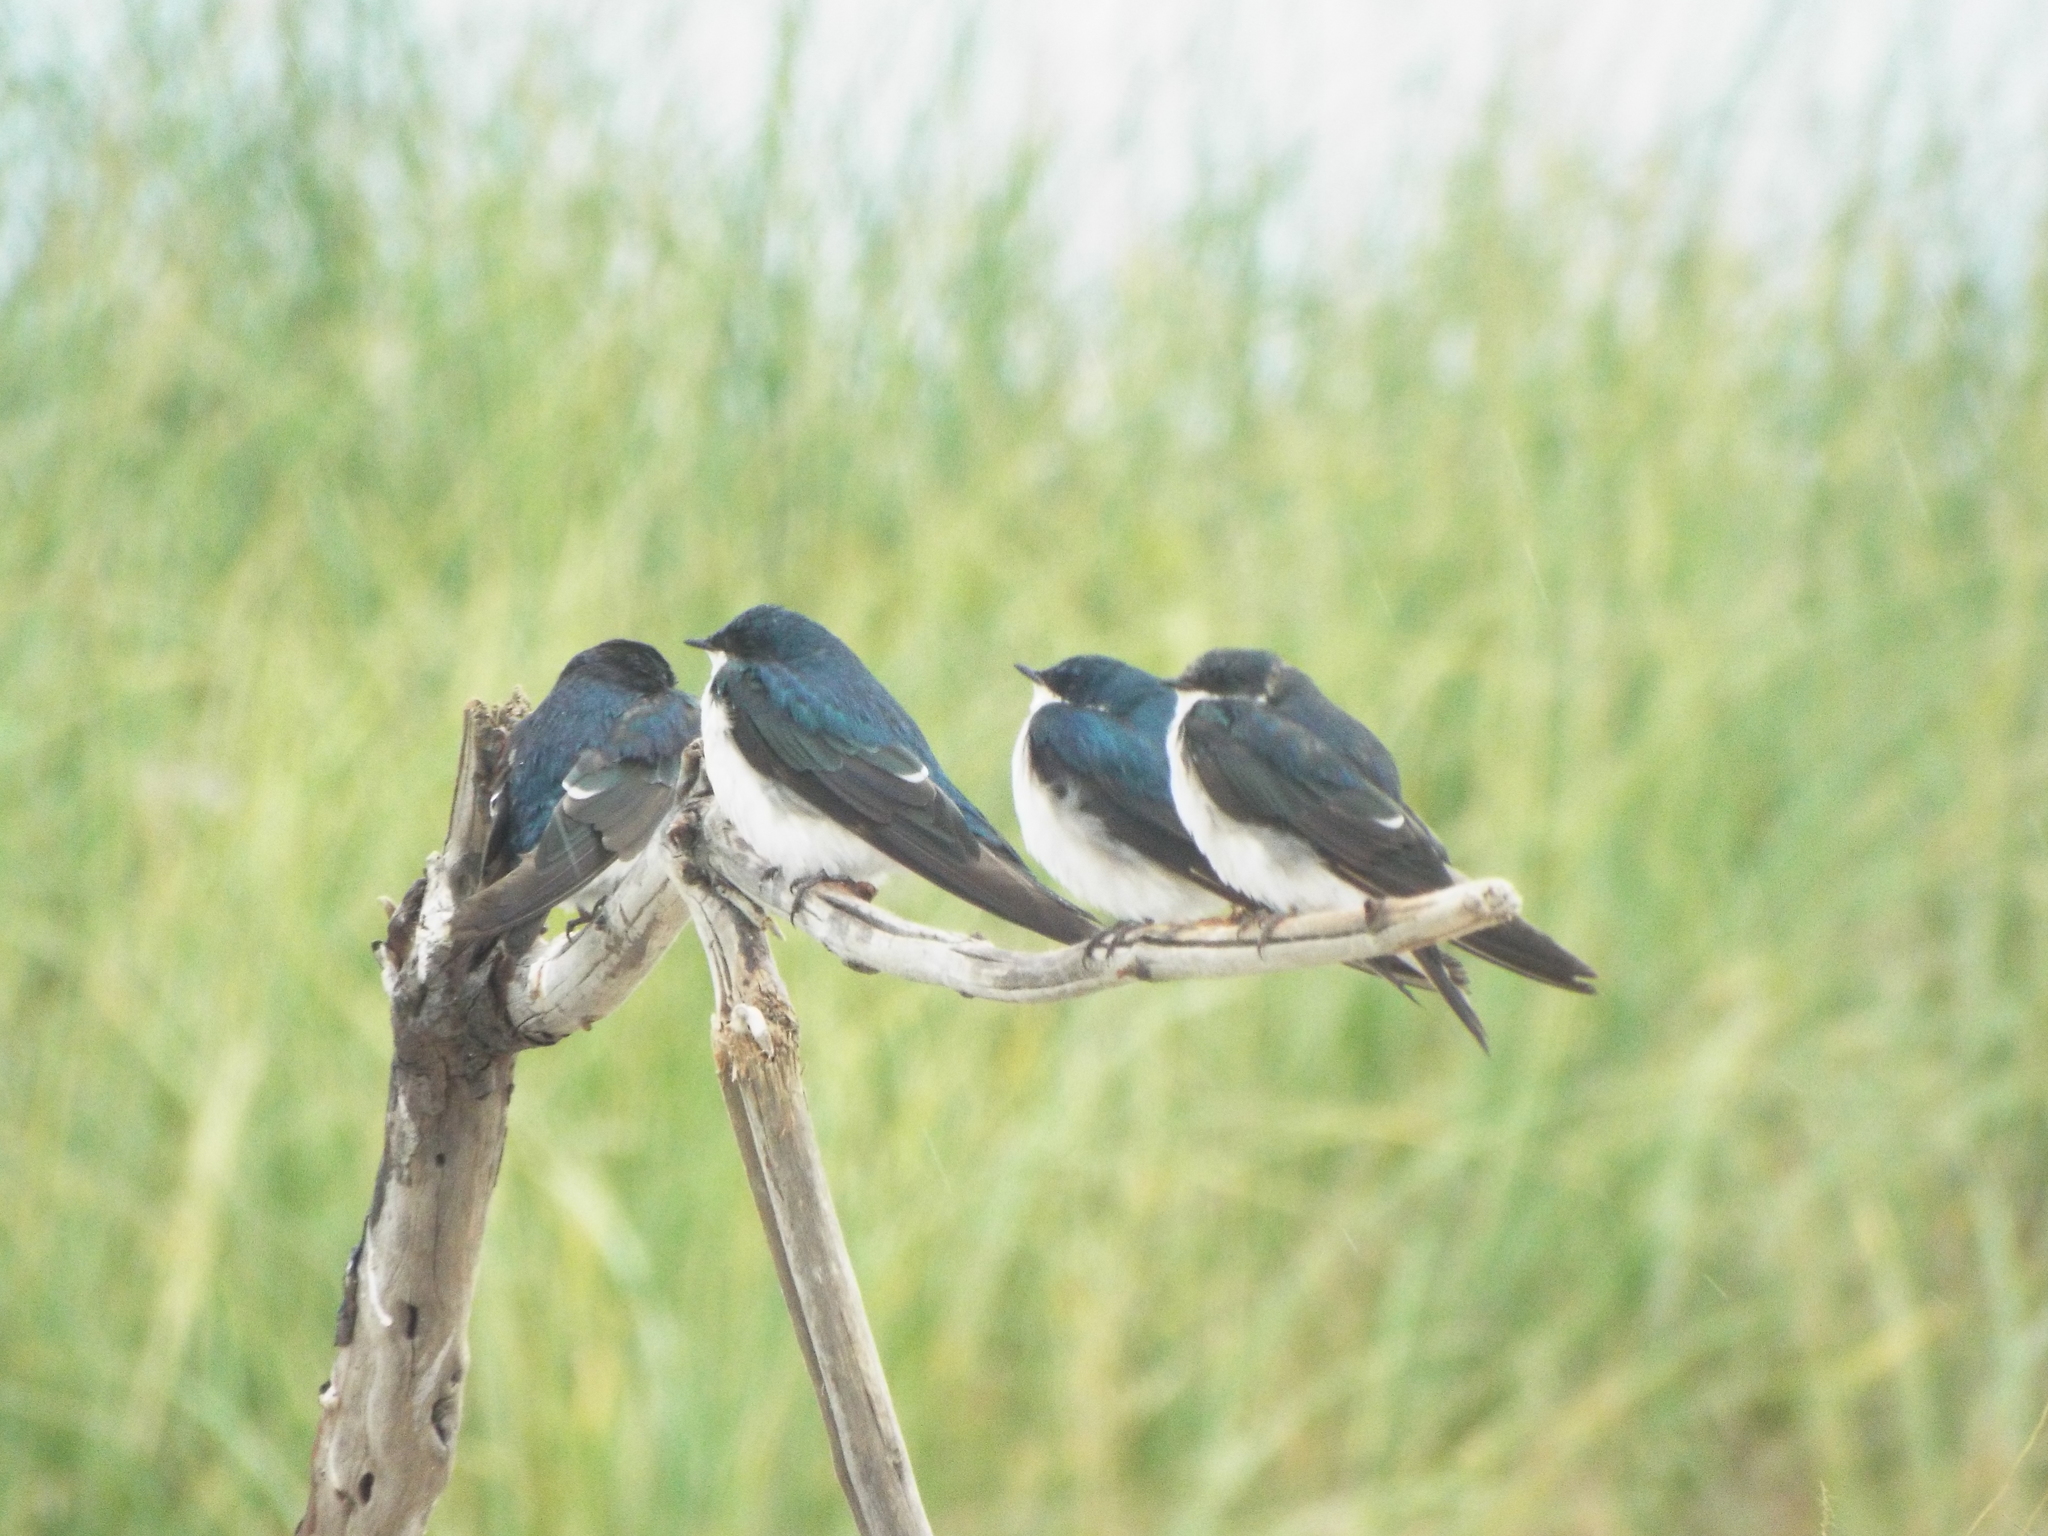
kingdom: Animalia
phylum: Chordata
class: Aves
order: Passeriformes
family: Hirundinidae
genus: Tachycineta
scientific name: Tachycineta bicolor
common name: Tree swallow
